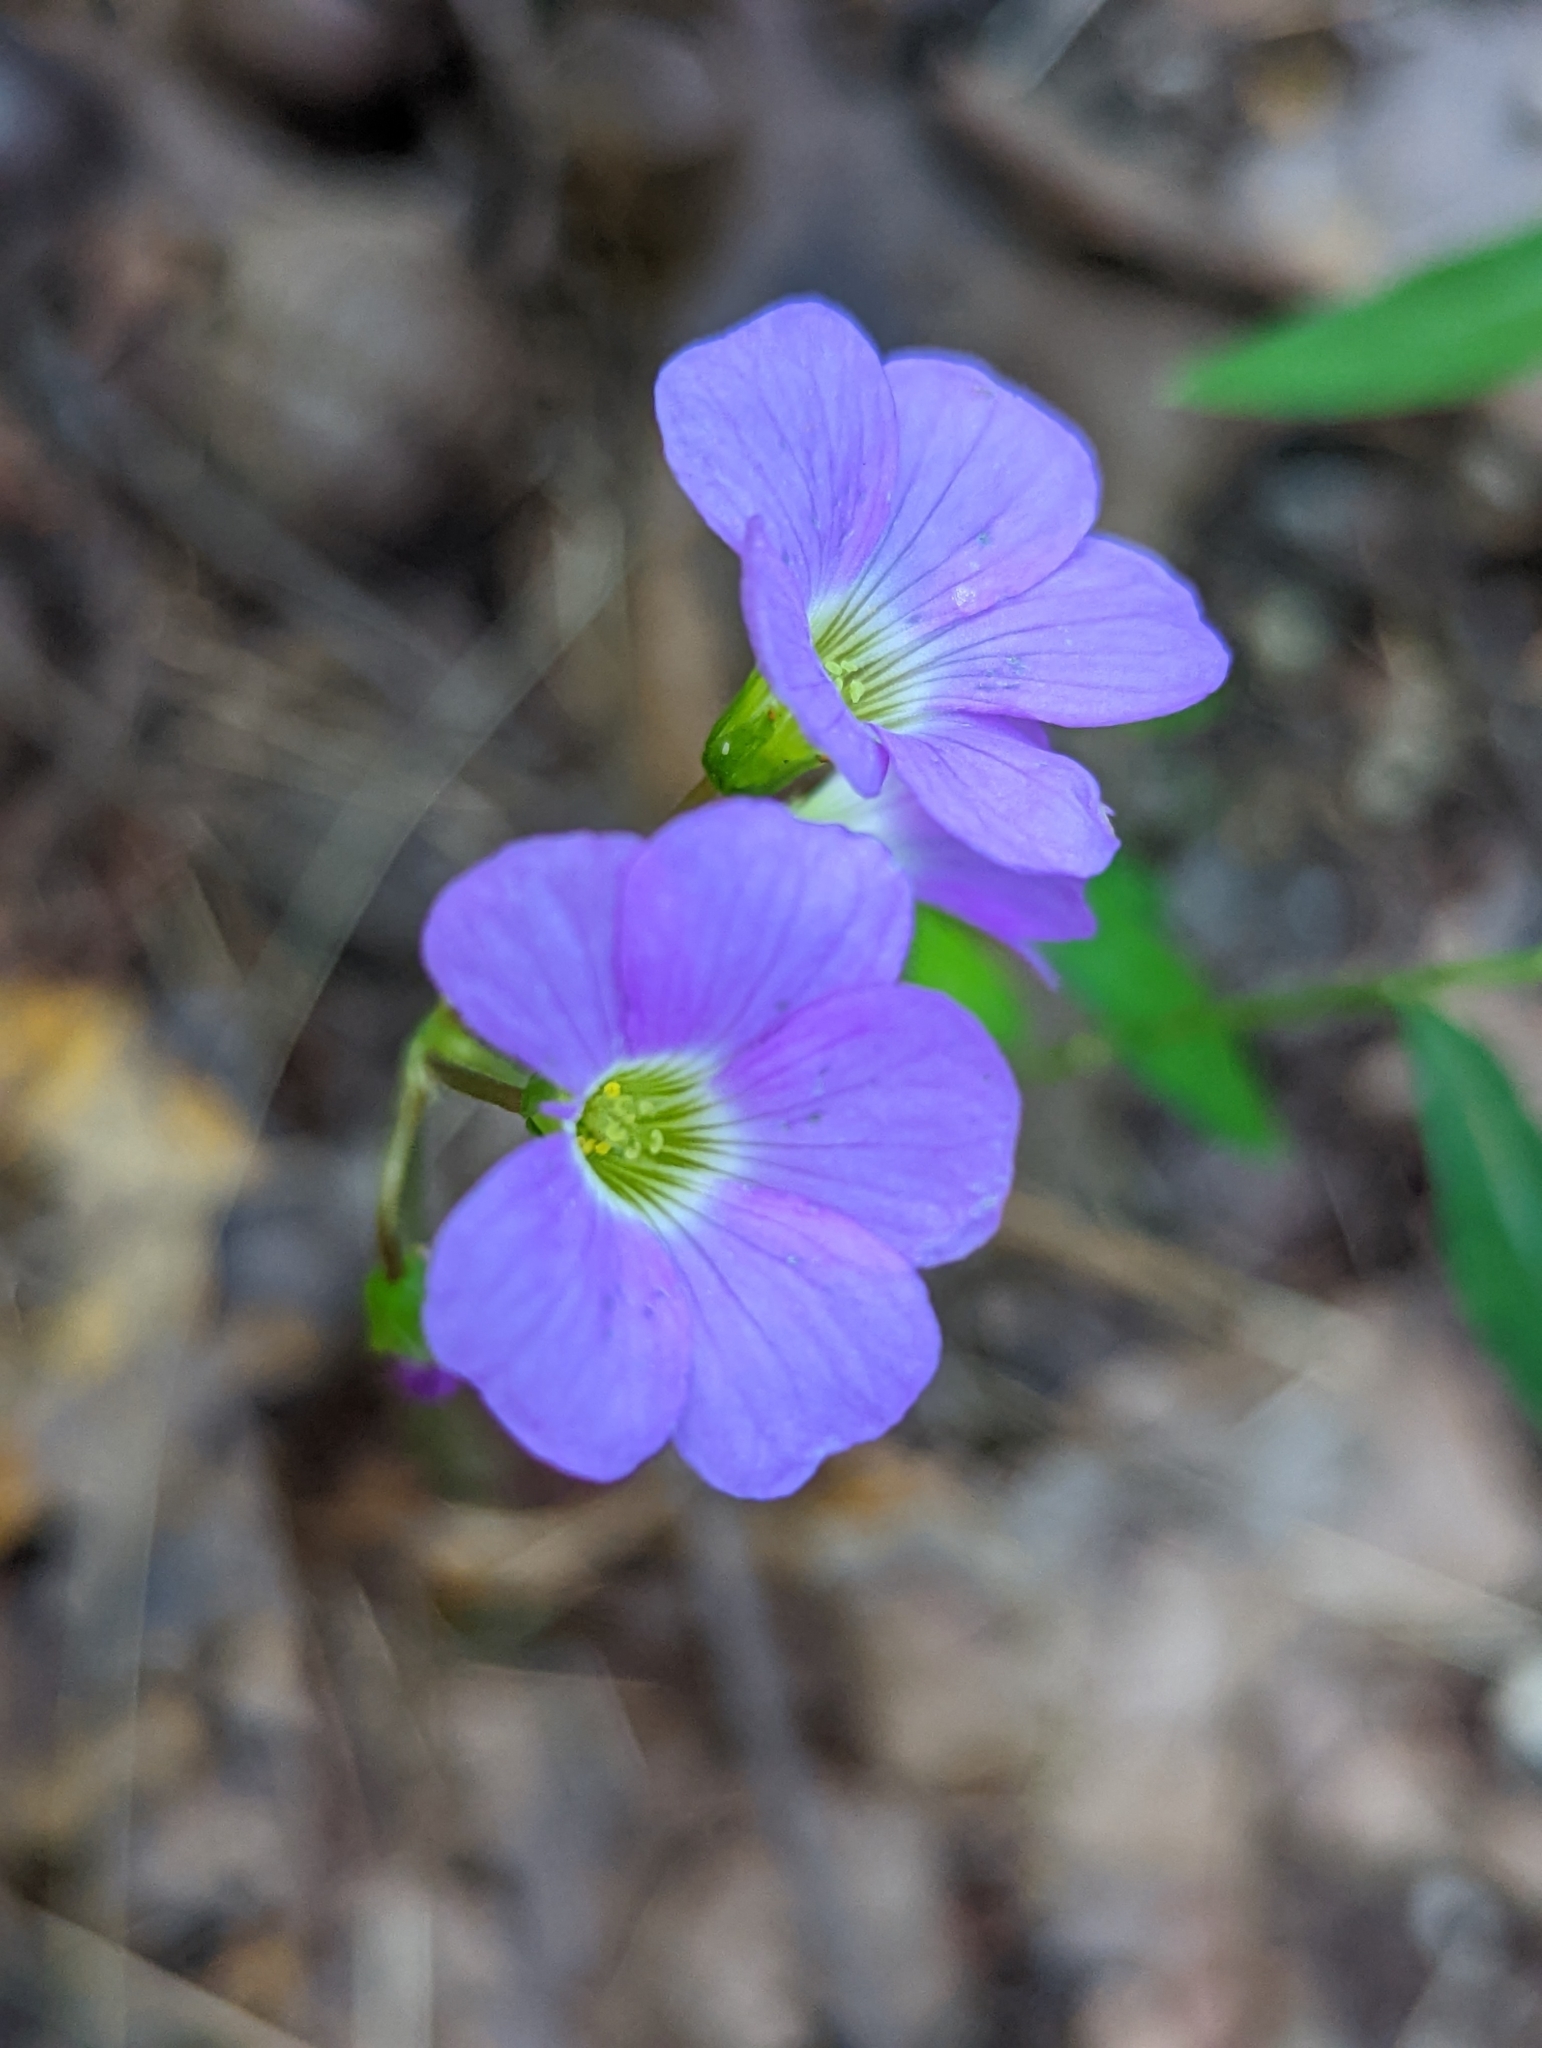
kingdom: Plantae
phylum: Tracheophyta
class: Magnoliopsida
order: Oxalidales
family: Oxalidaceae
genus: Oxalis
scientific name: Oxalis violacea
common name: Violet wood-sorrel
